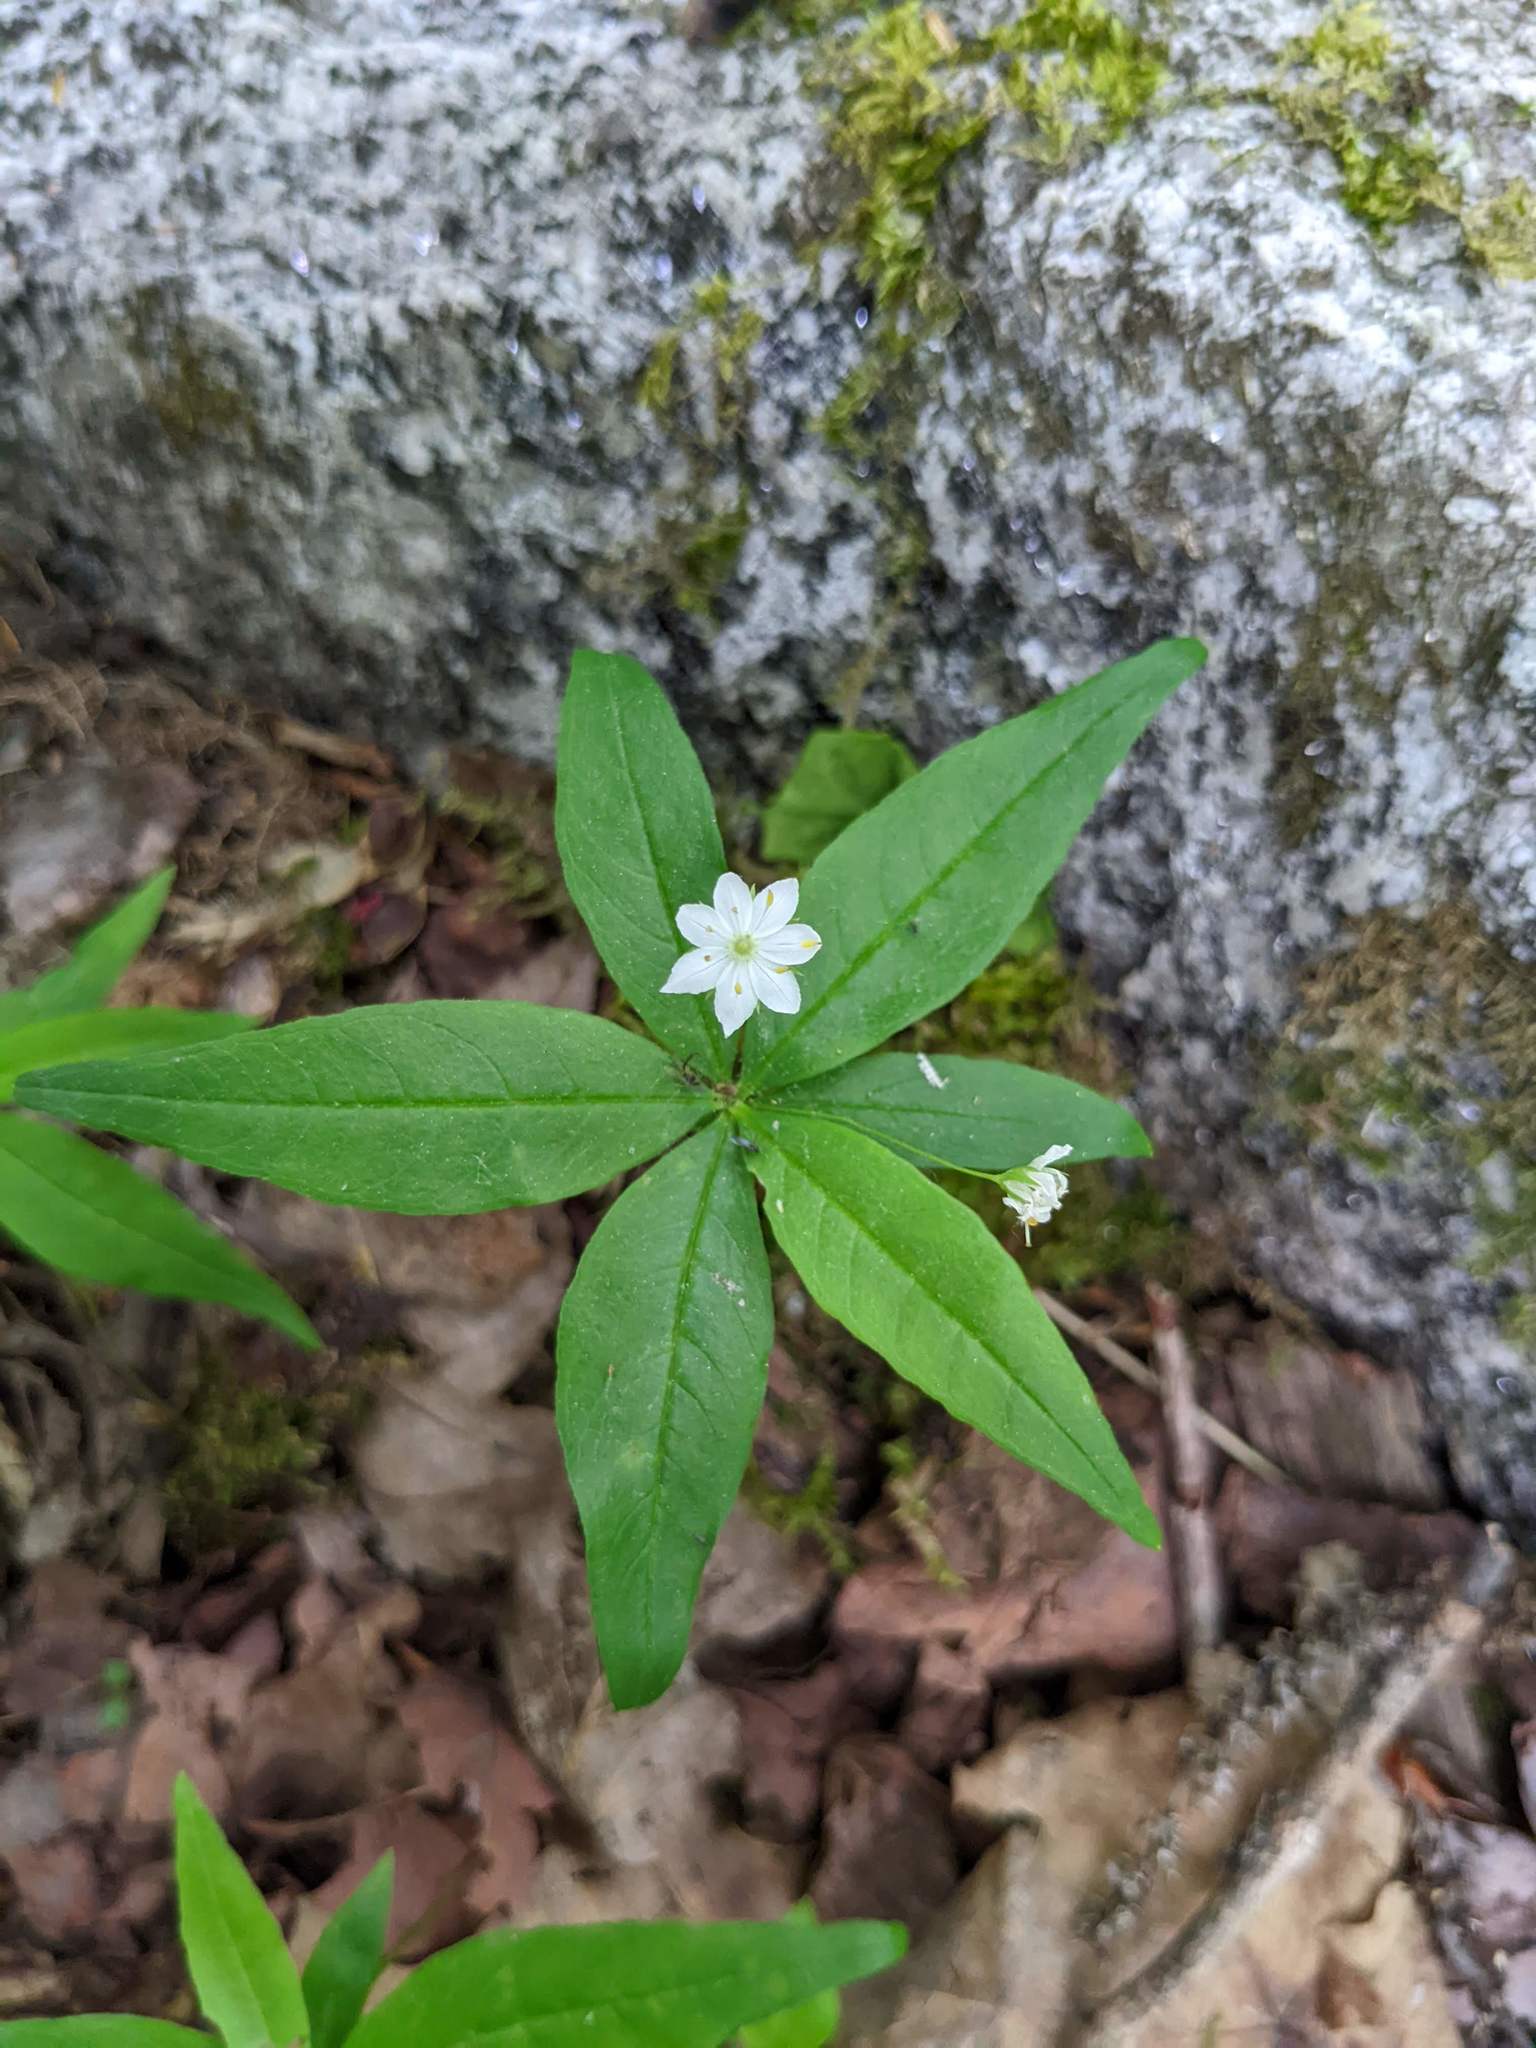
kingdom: Plantae
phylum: Tracheophyta
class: Magnoliopsida
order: Ericales
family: Primulaceae
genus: Lysimachia
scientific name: Lysimachia borealis
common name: American starflower
